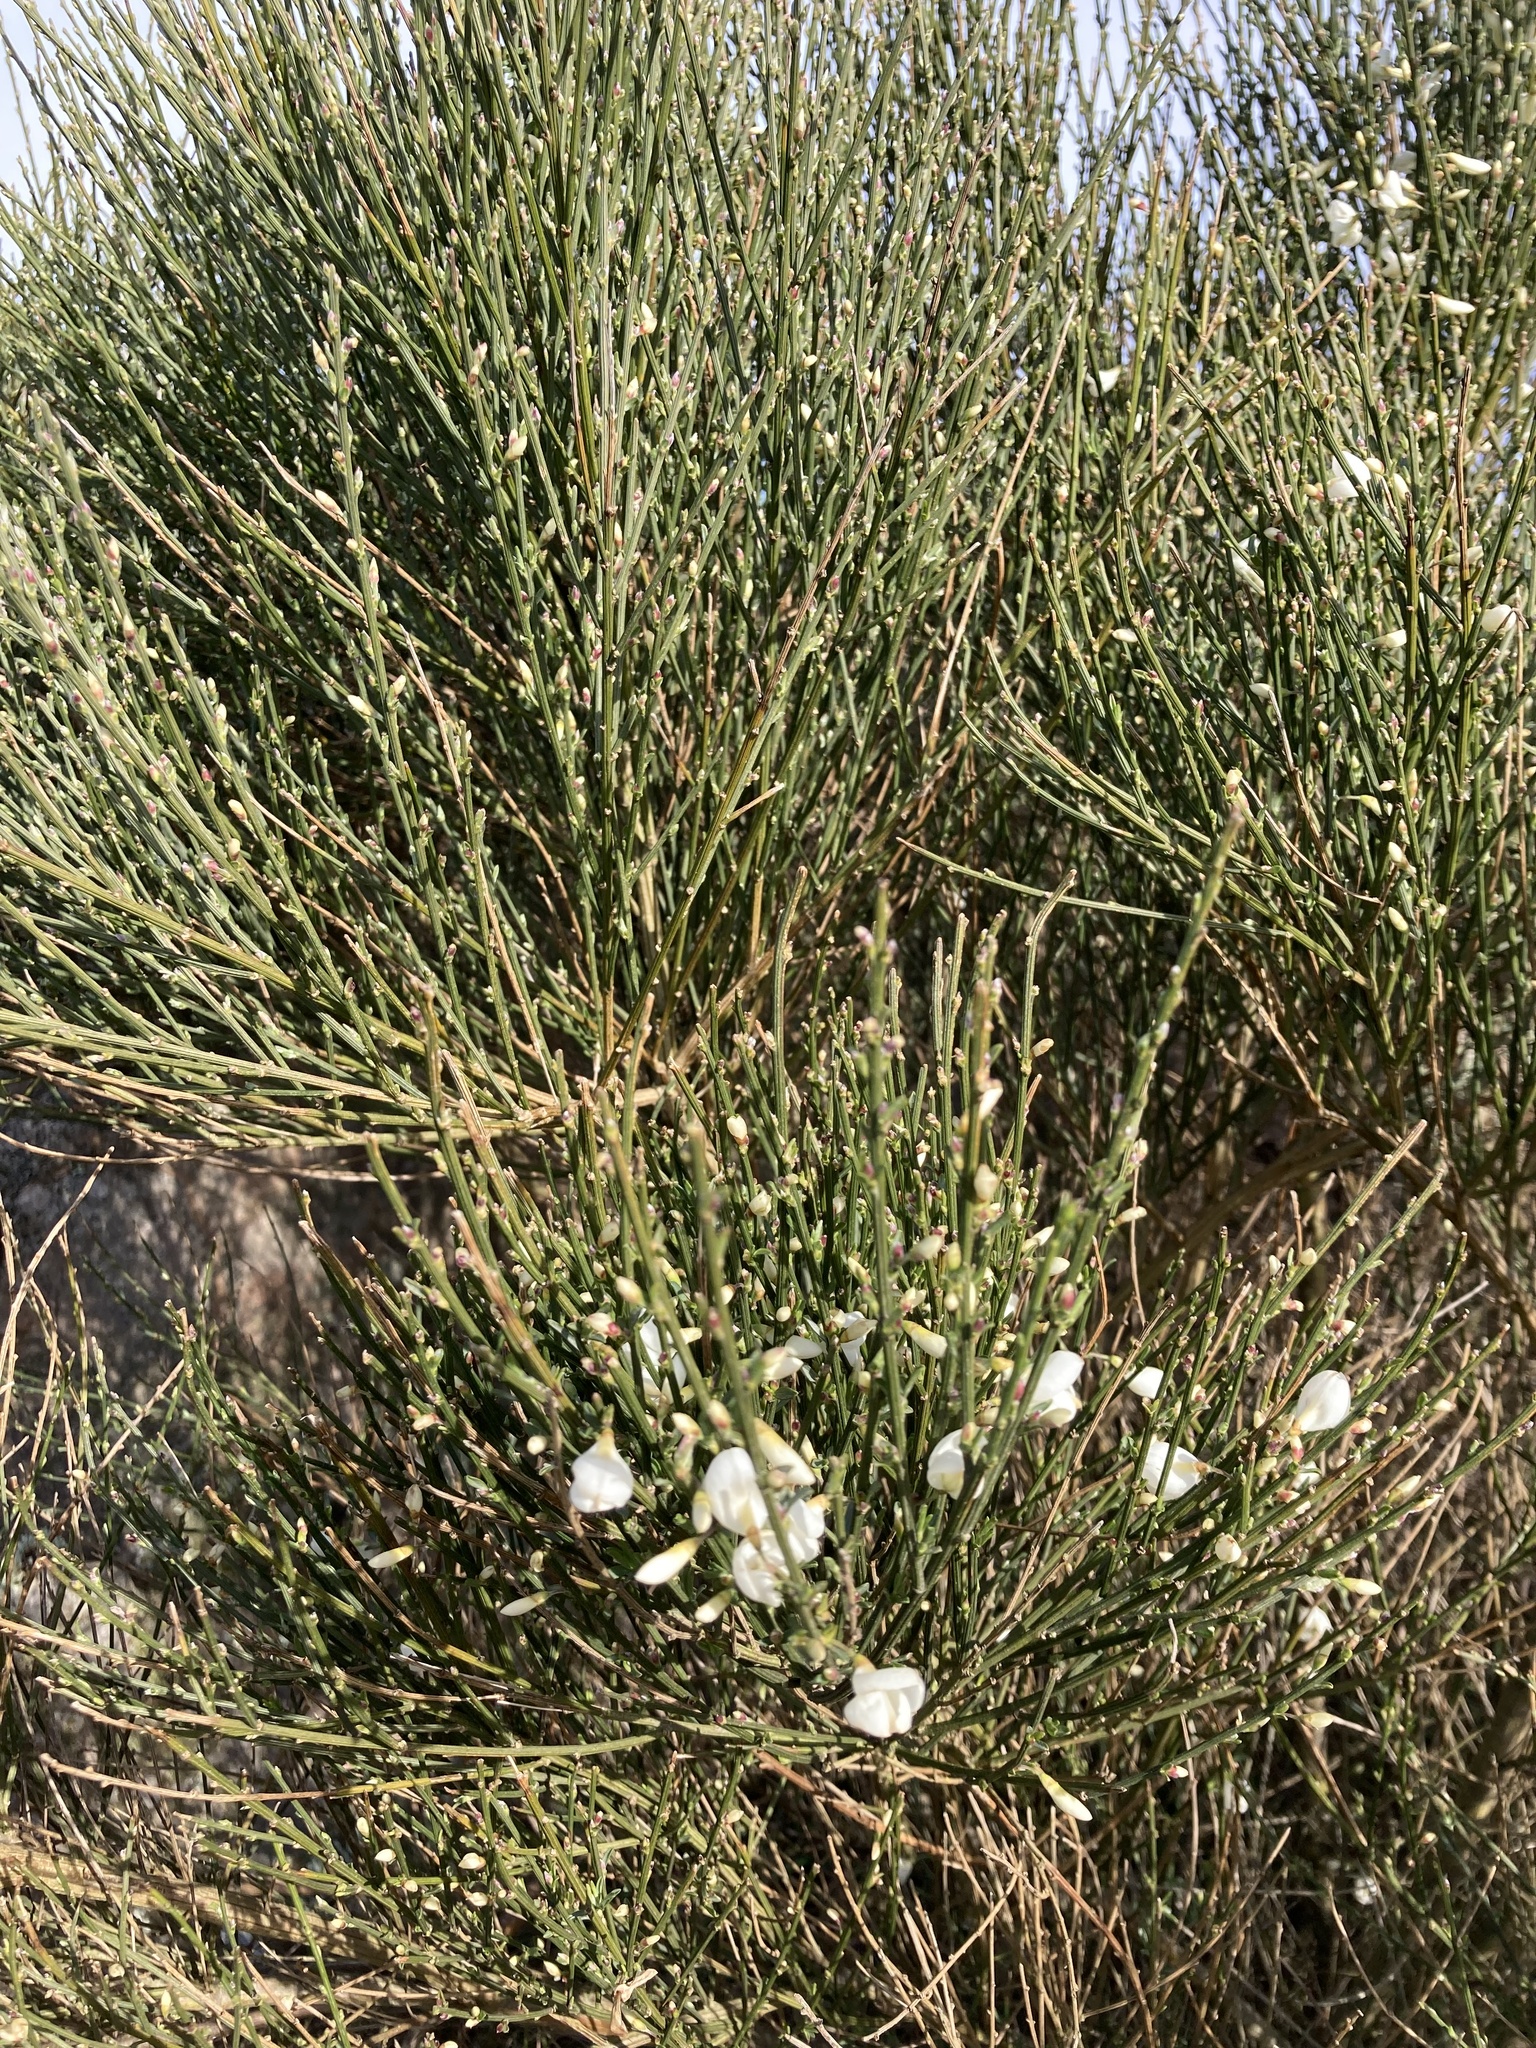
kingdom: Plantae
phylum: Tracheophyta
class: Magnoliopsida
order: Fabales
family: Fabaceae
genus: Cytisus
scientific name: Cytisus scoparius
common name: Scotch broom
